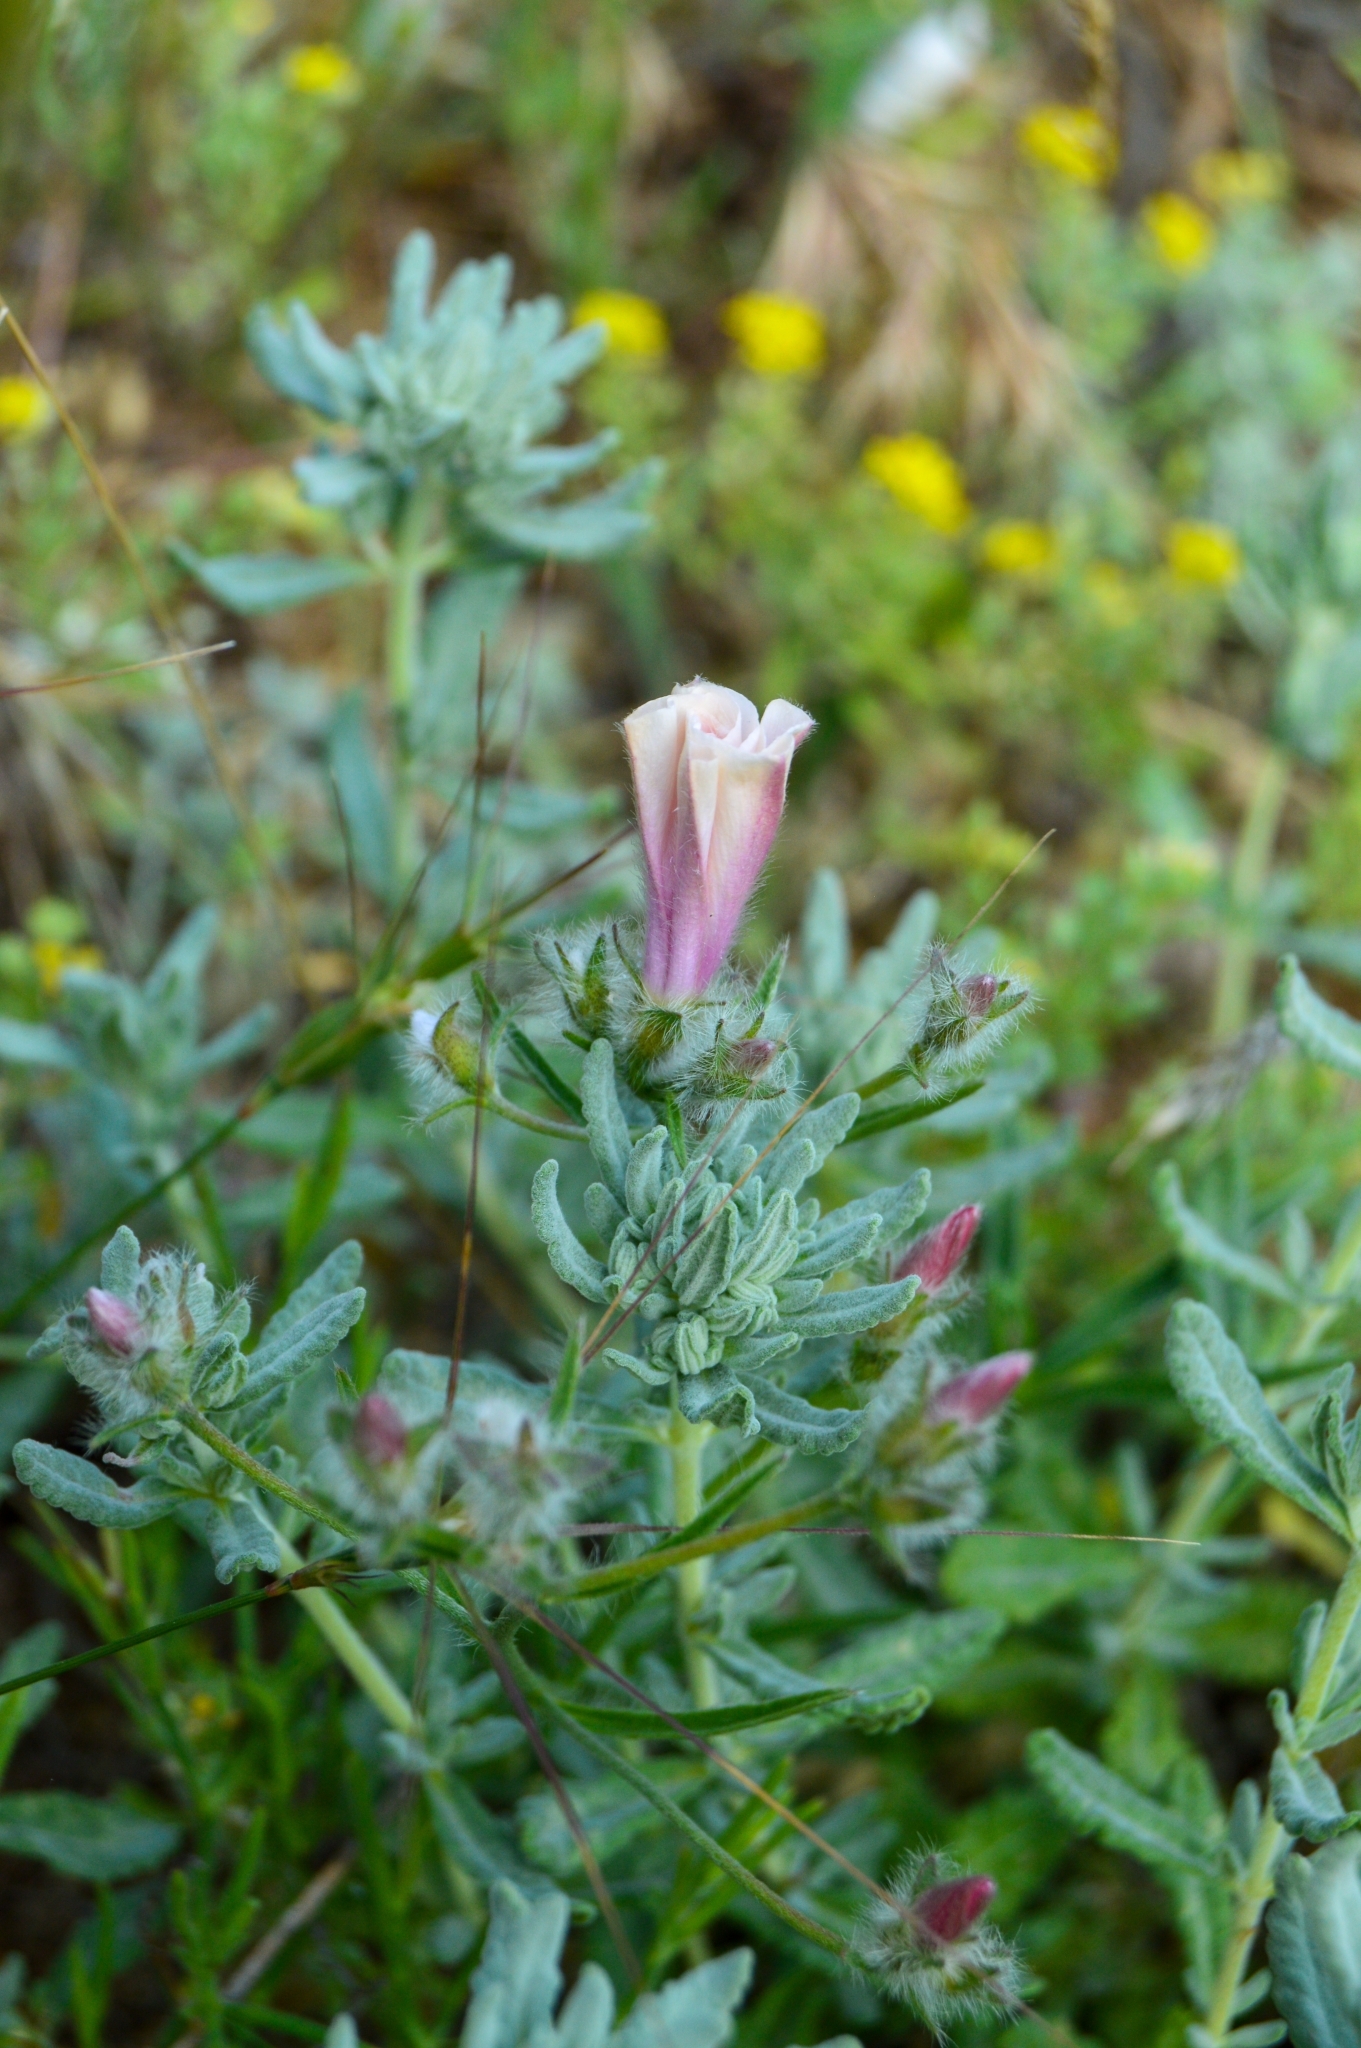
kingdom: Plantae
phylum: Tracheophyta
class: Magnoliopsida
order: Solanales
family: Convolvulaceae
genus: Convolvulus
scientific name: Convolvulus cantabrica
